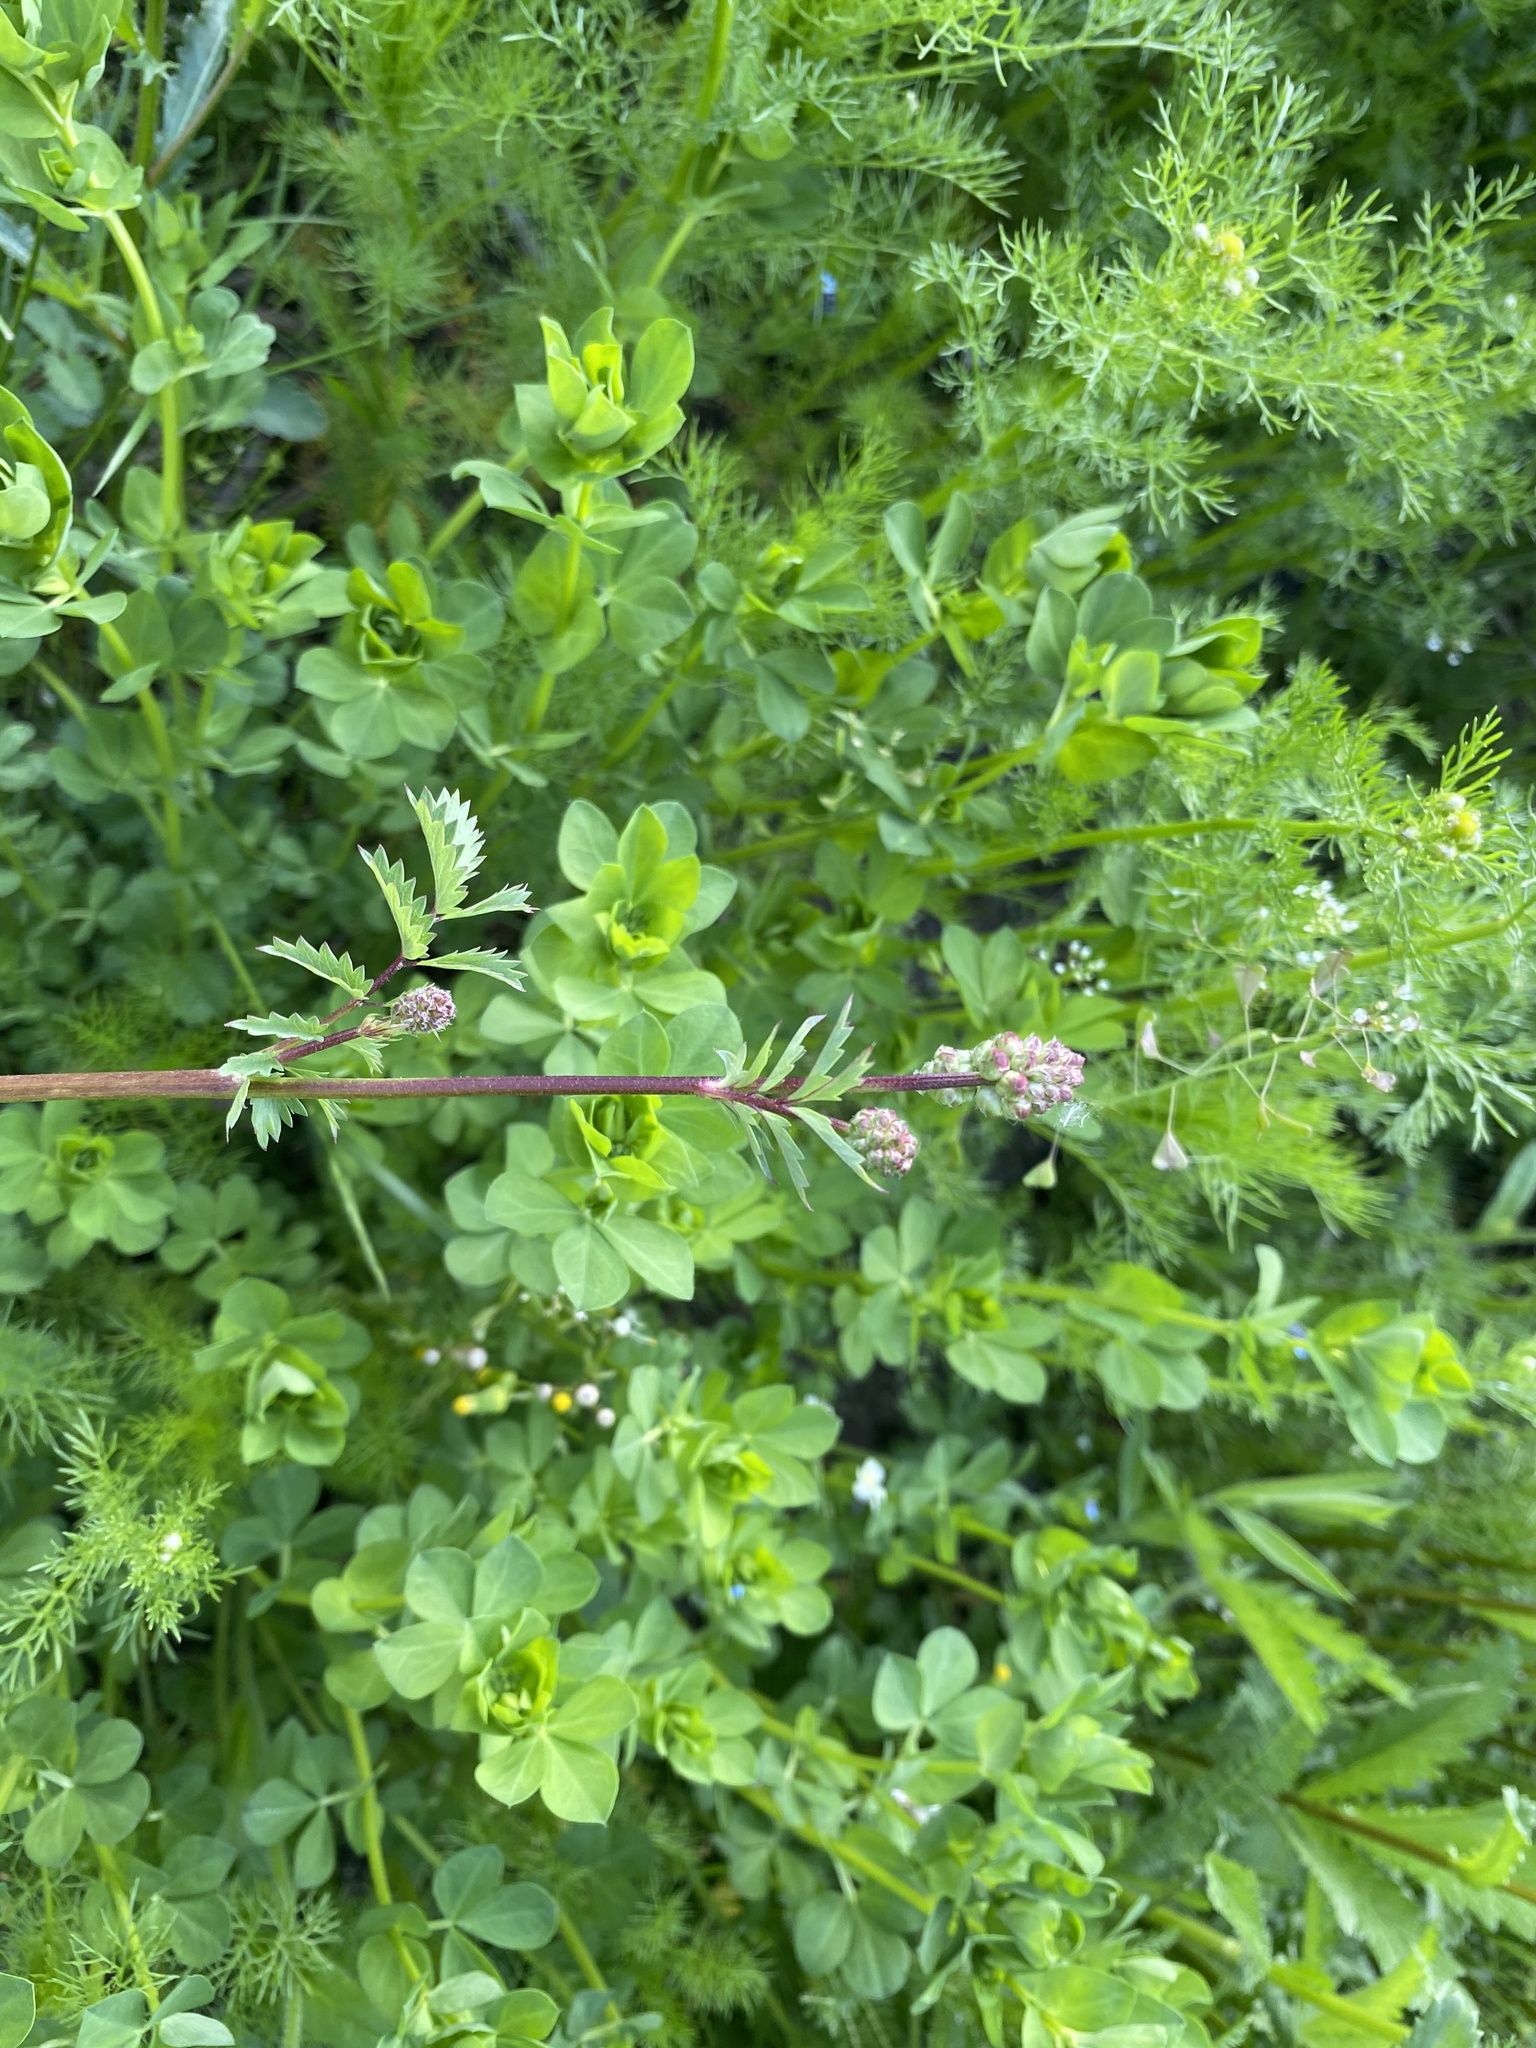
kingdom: Plantae
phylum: Tracheophyta
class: Magnoliopsida
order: Rosales
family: Rosaceae
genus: Poterium
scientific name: Poterium sanguisorba
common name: Salad burnet
